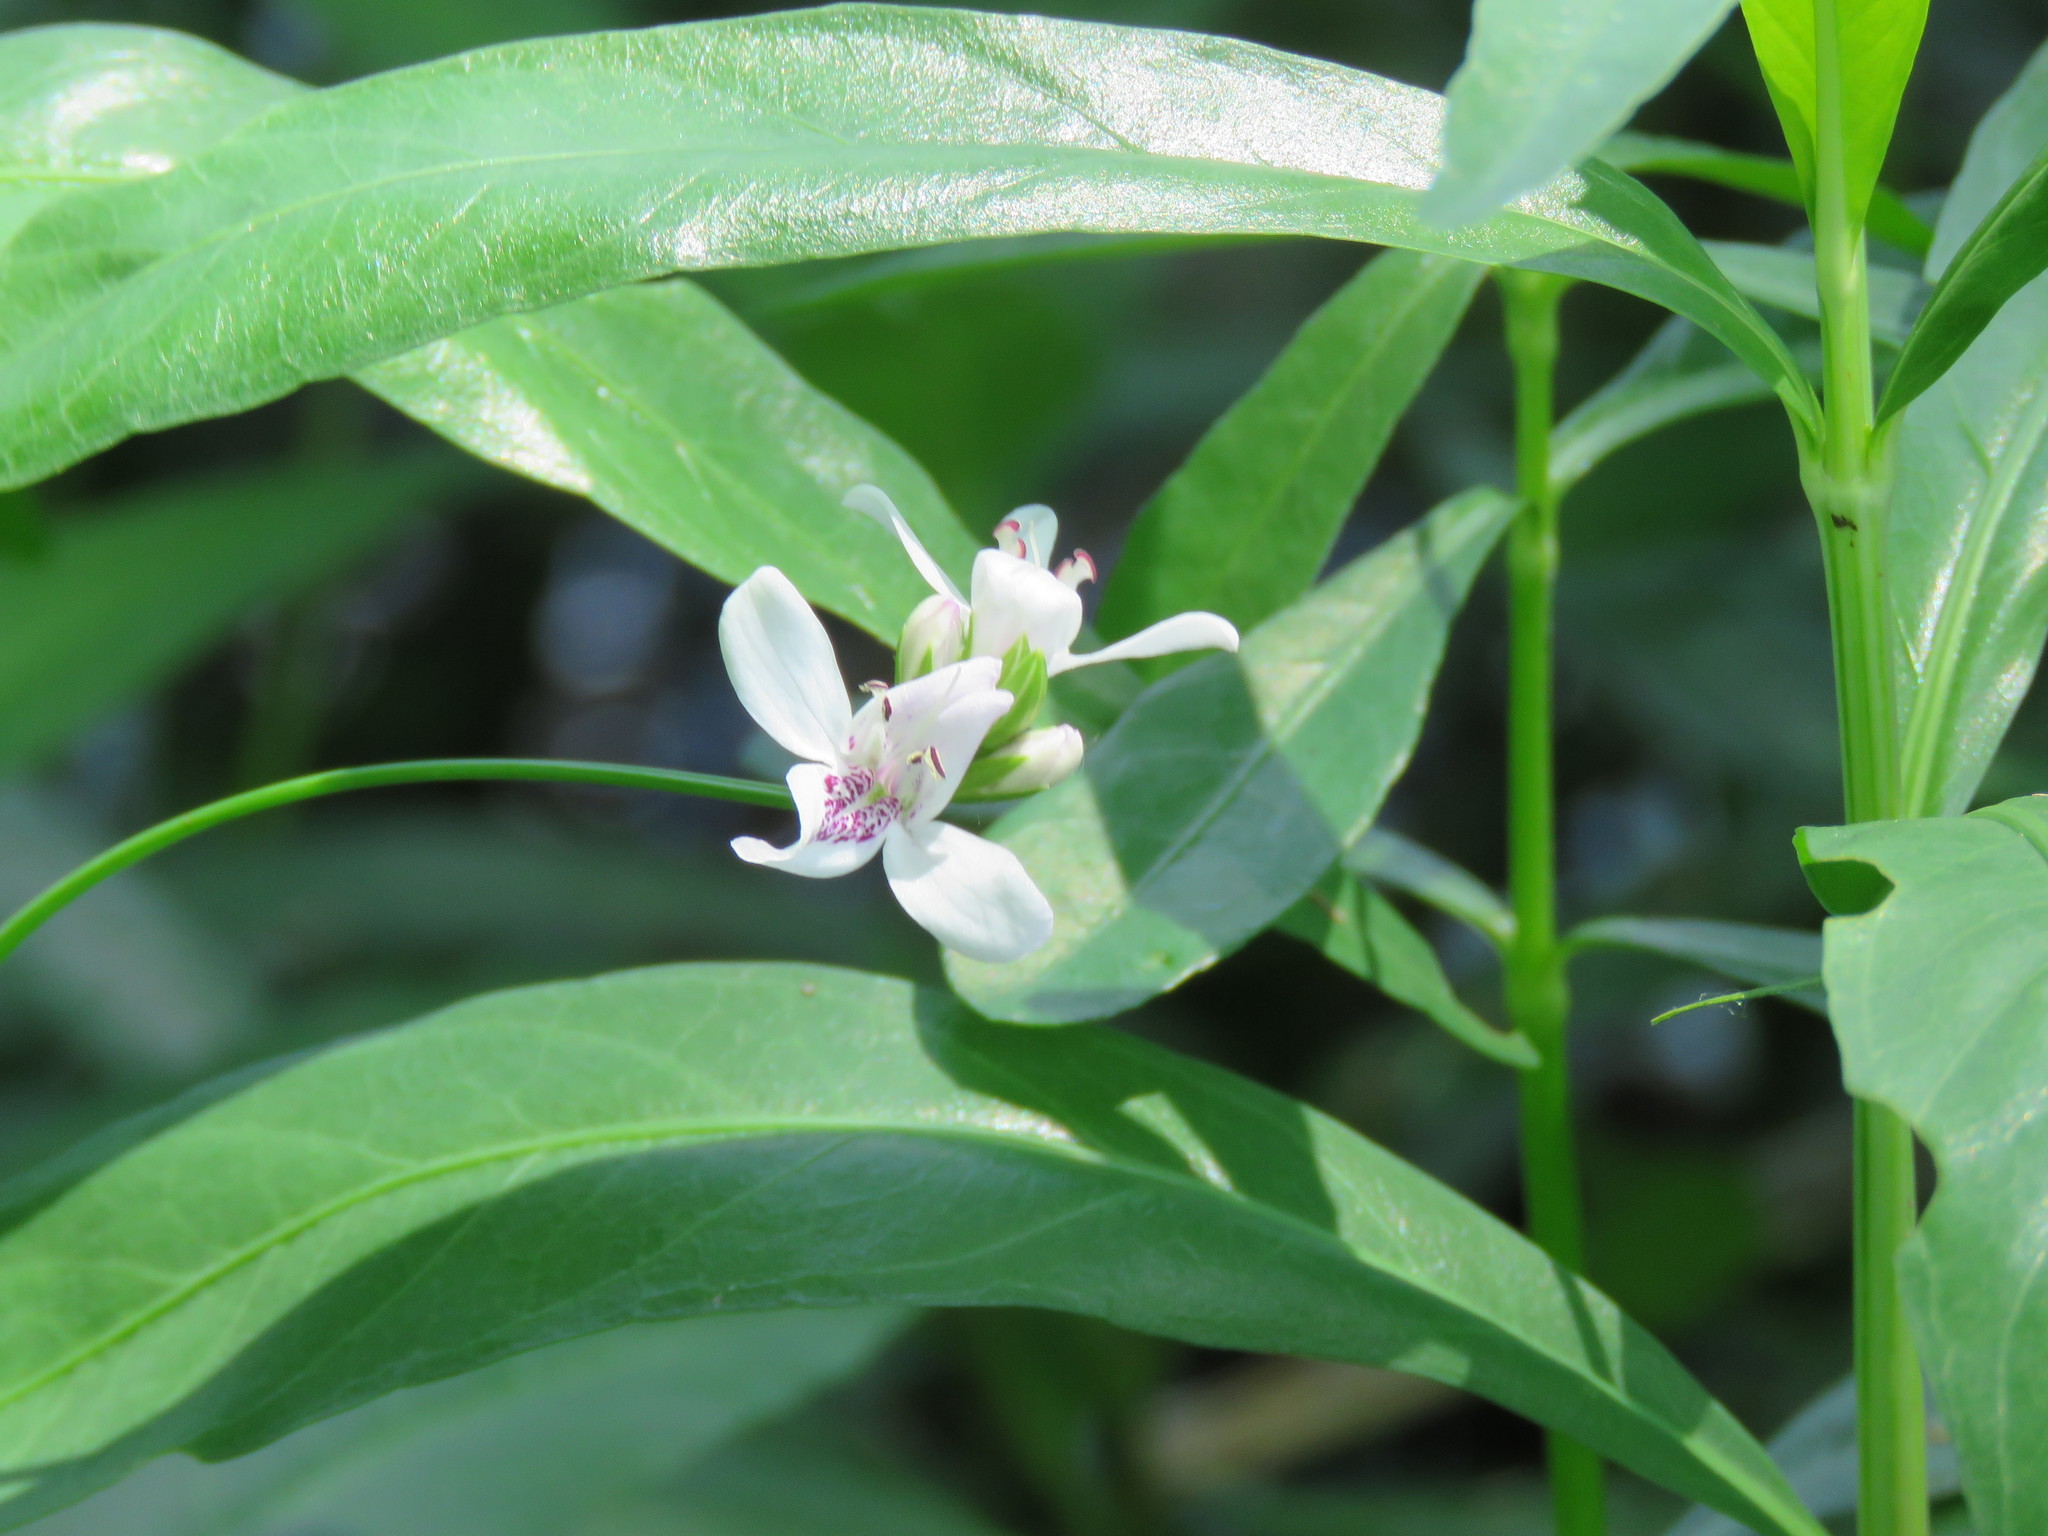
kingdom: Plantae
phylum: Tracheophyta
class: Magnoliopsida
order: Lamiales
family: Acanthaceae
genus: Dianthera
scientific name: Dianthera americana
